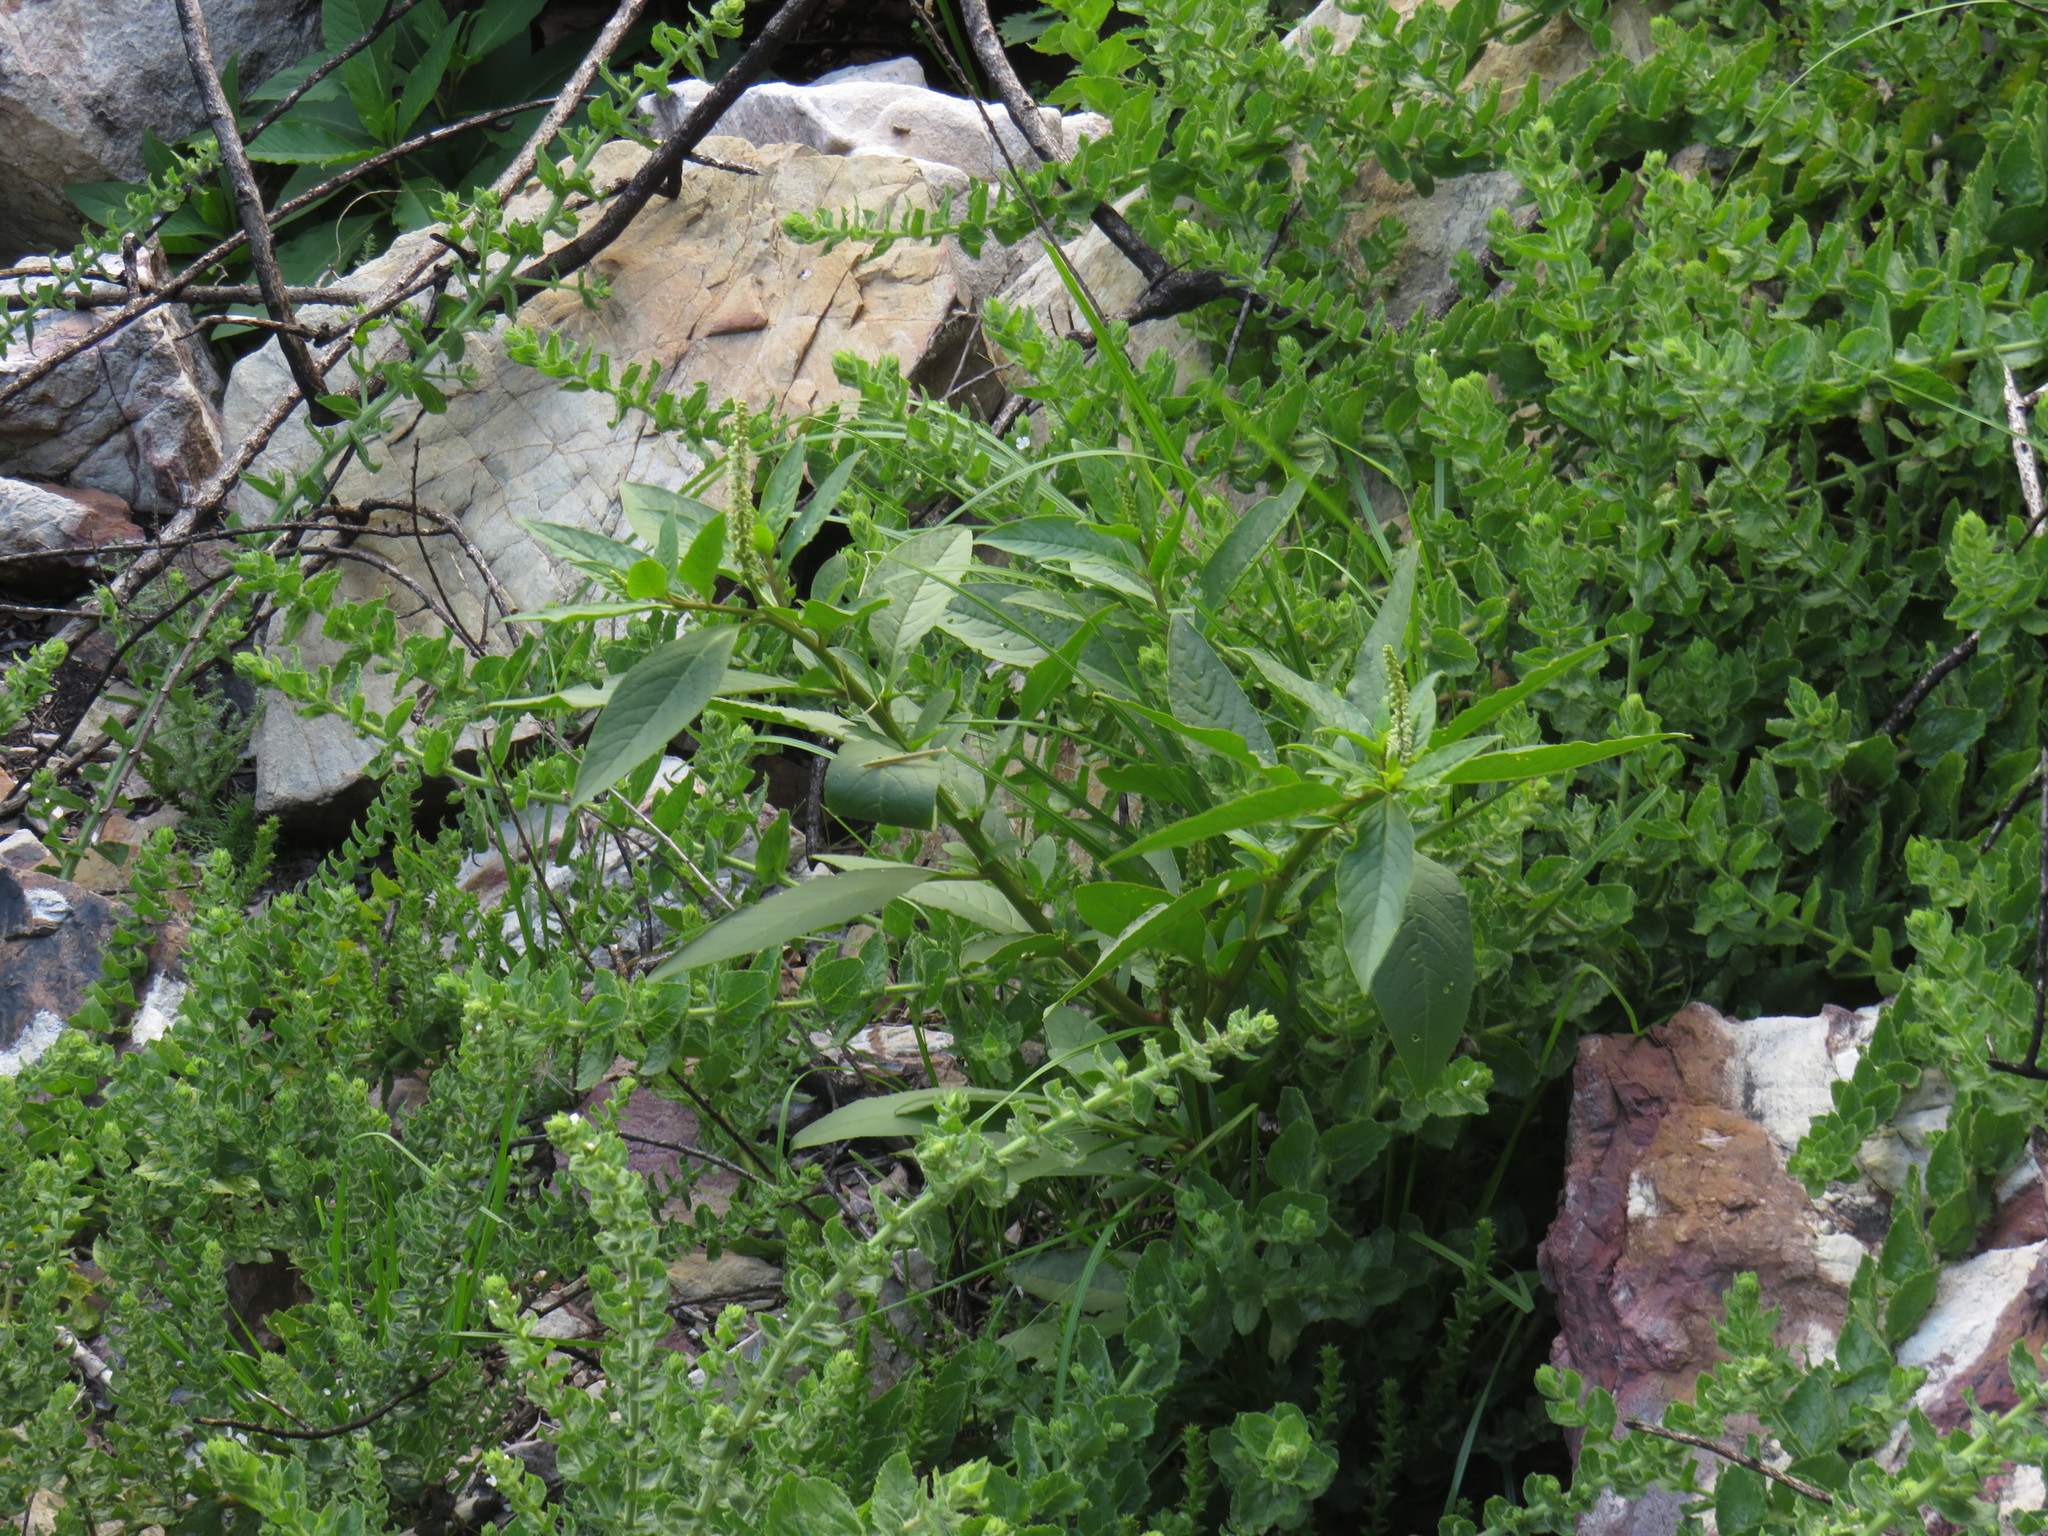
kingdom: Plantae
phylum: Tracheophyta
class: Magnoliopsida
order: Caryophyllales
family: Phytolaccaceae
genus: Phytolacca
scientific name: Phytolacca icosandra
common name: Button pokeweed
